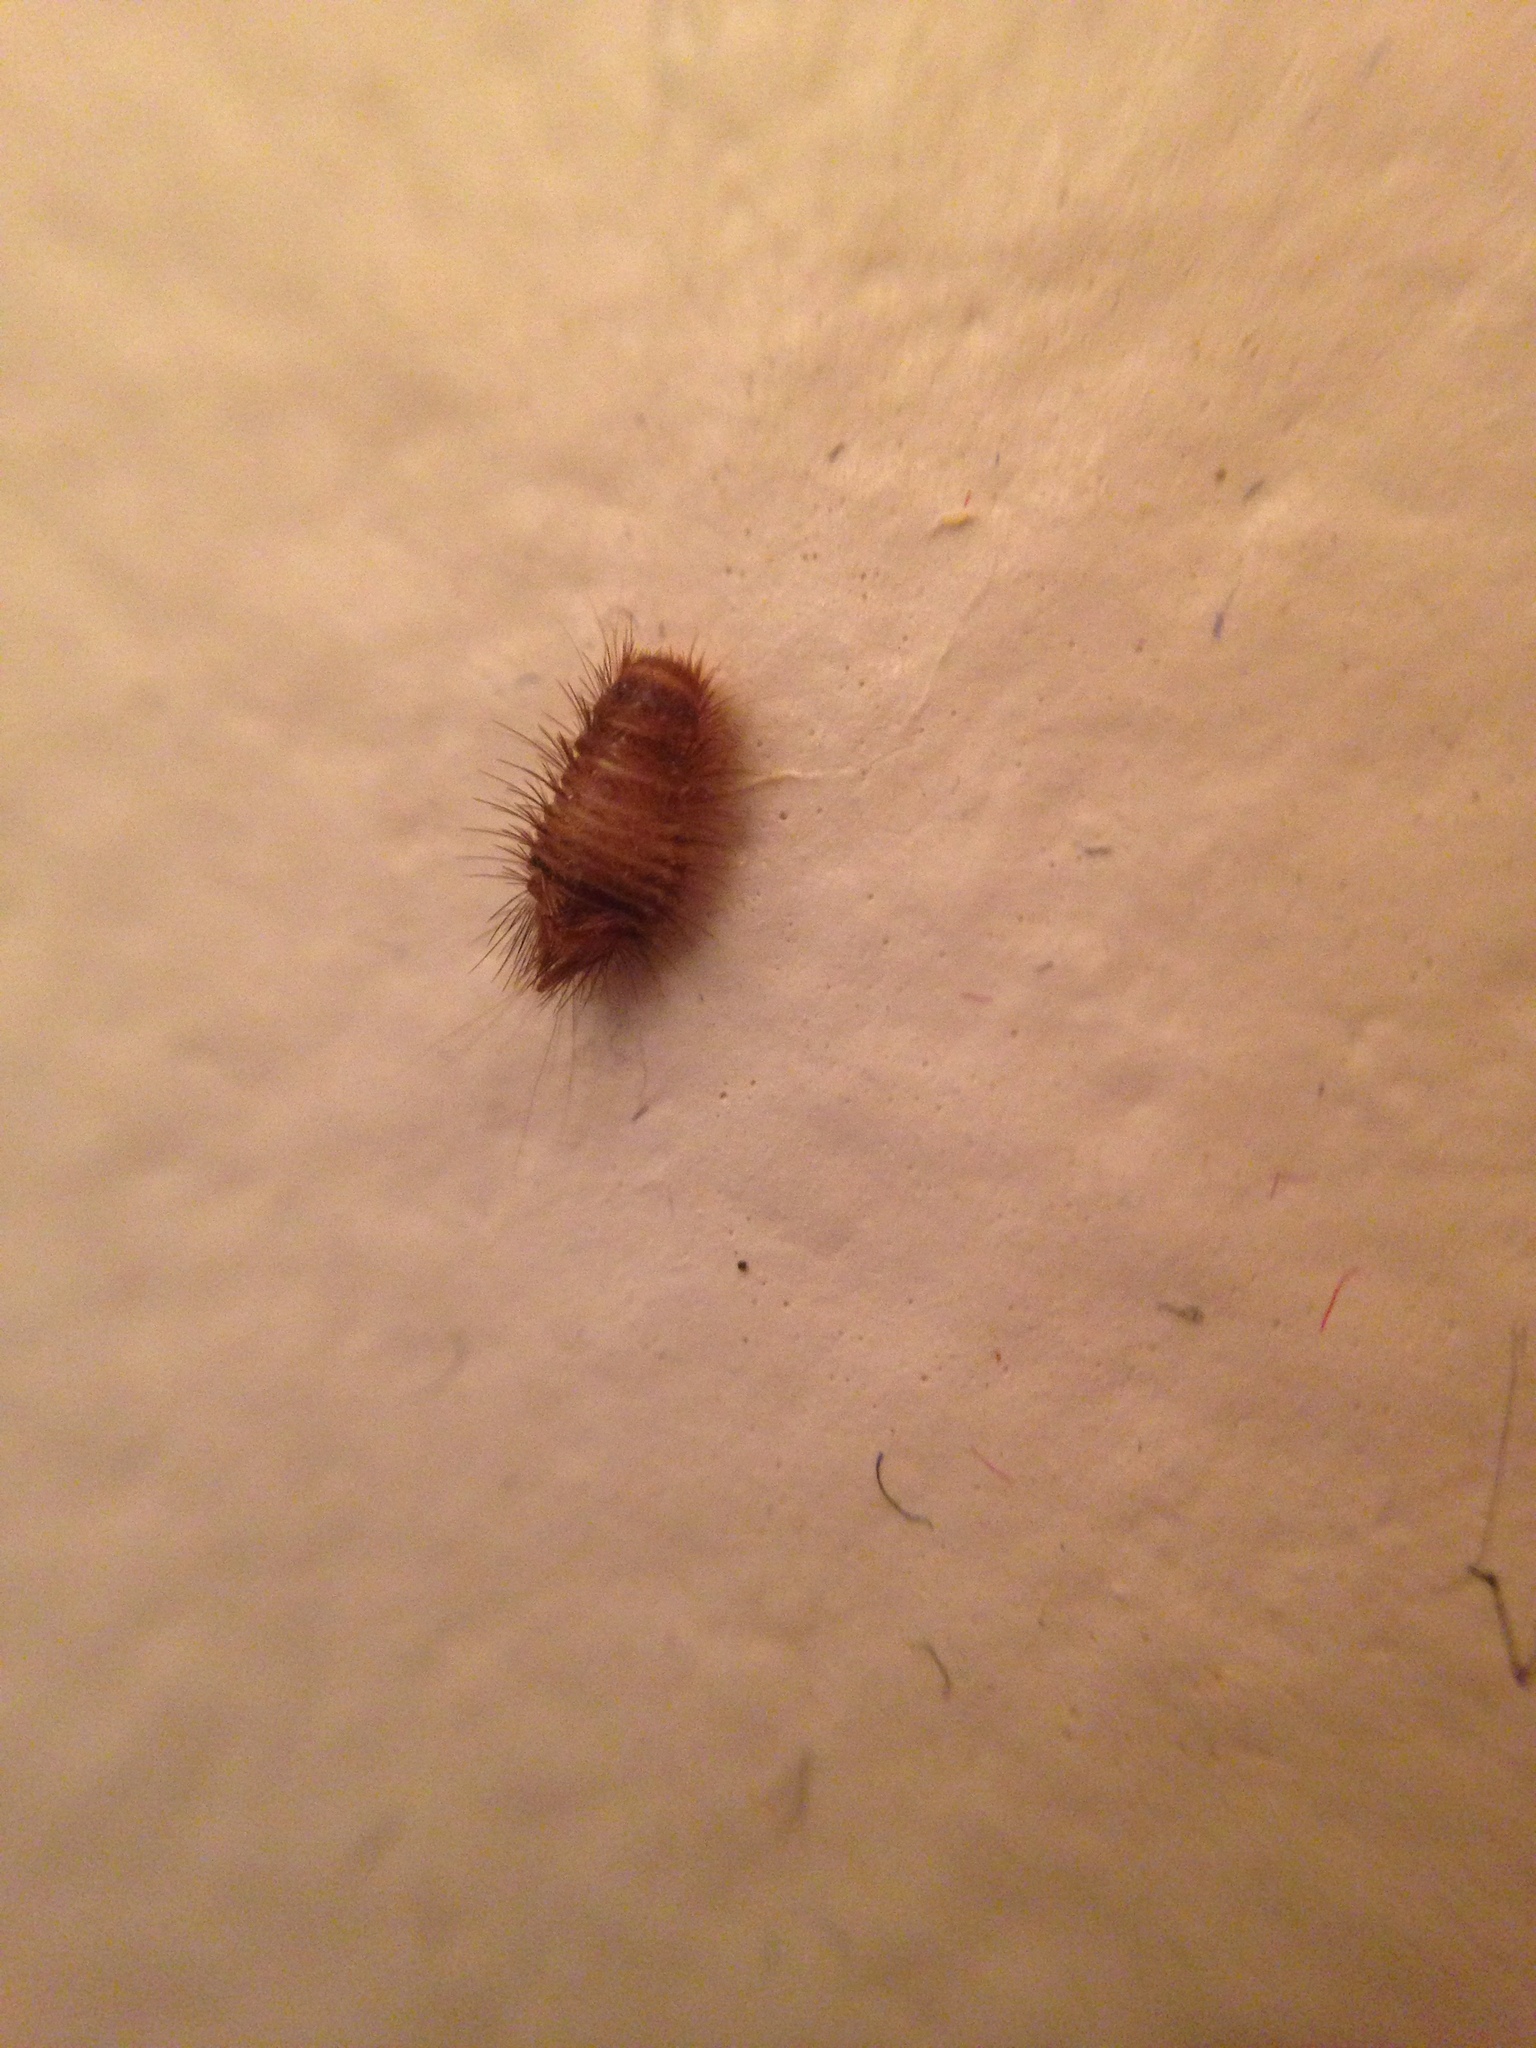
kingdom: Animalia
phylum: Arthropoda
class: Insecta
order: Coleoptera
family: Dermestidae
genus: Anthrenus
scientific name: Anthrenus
